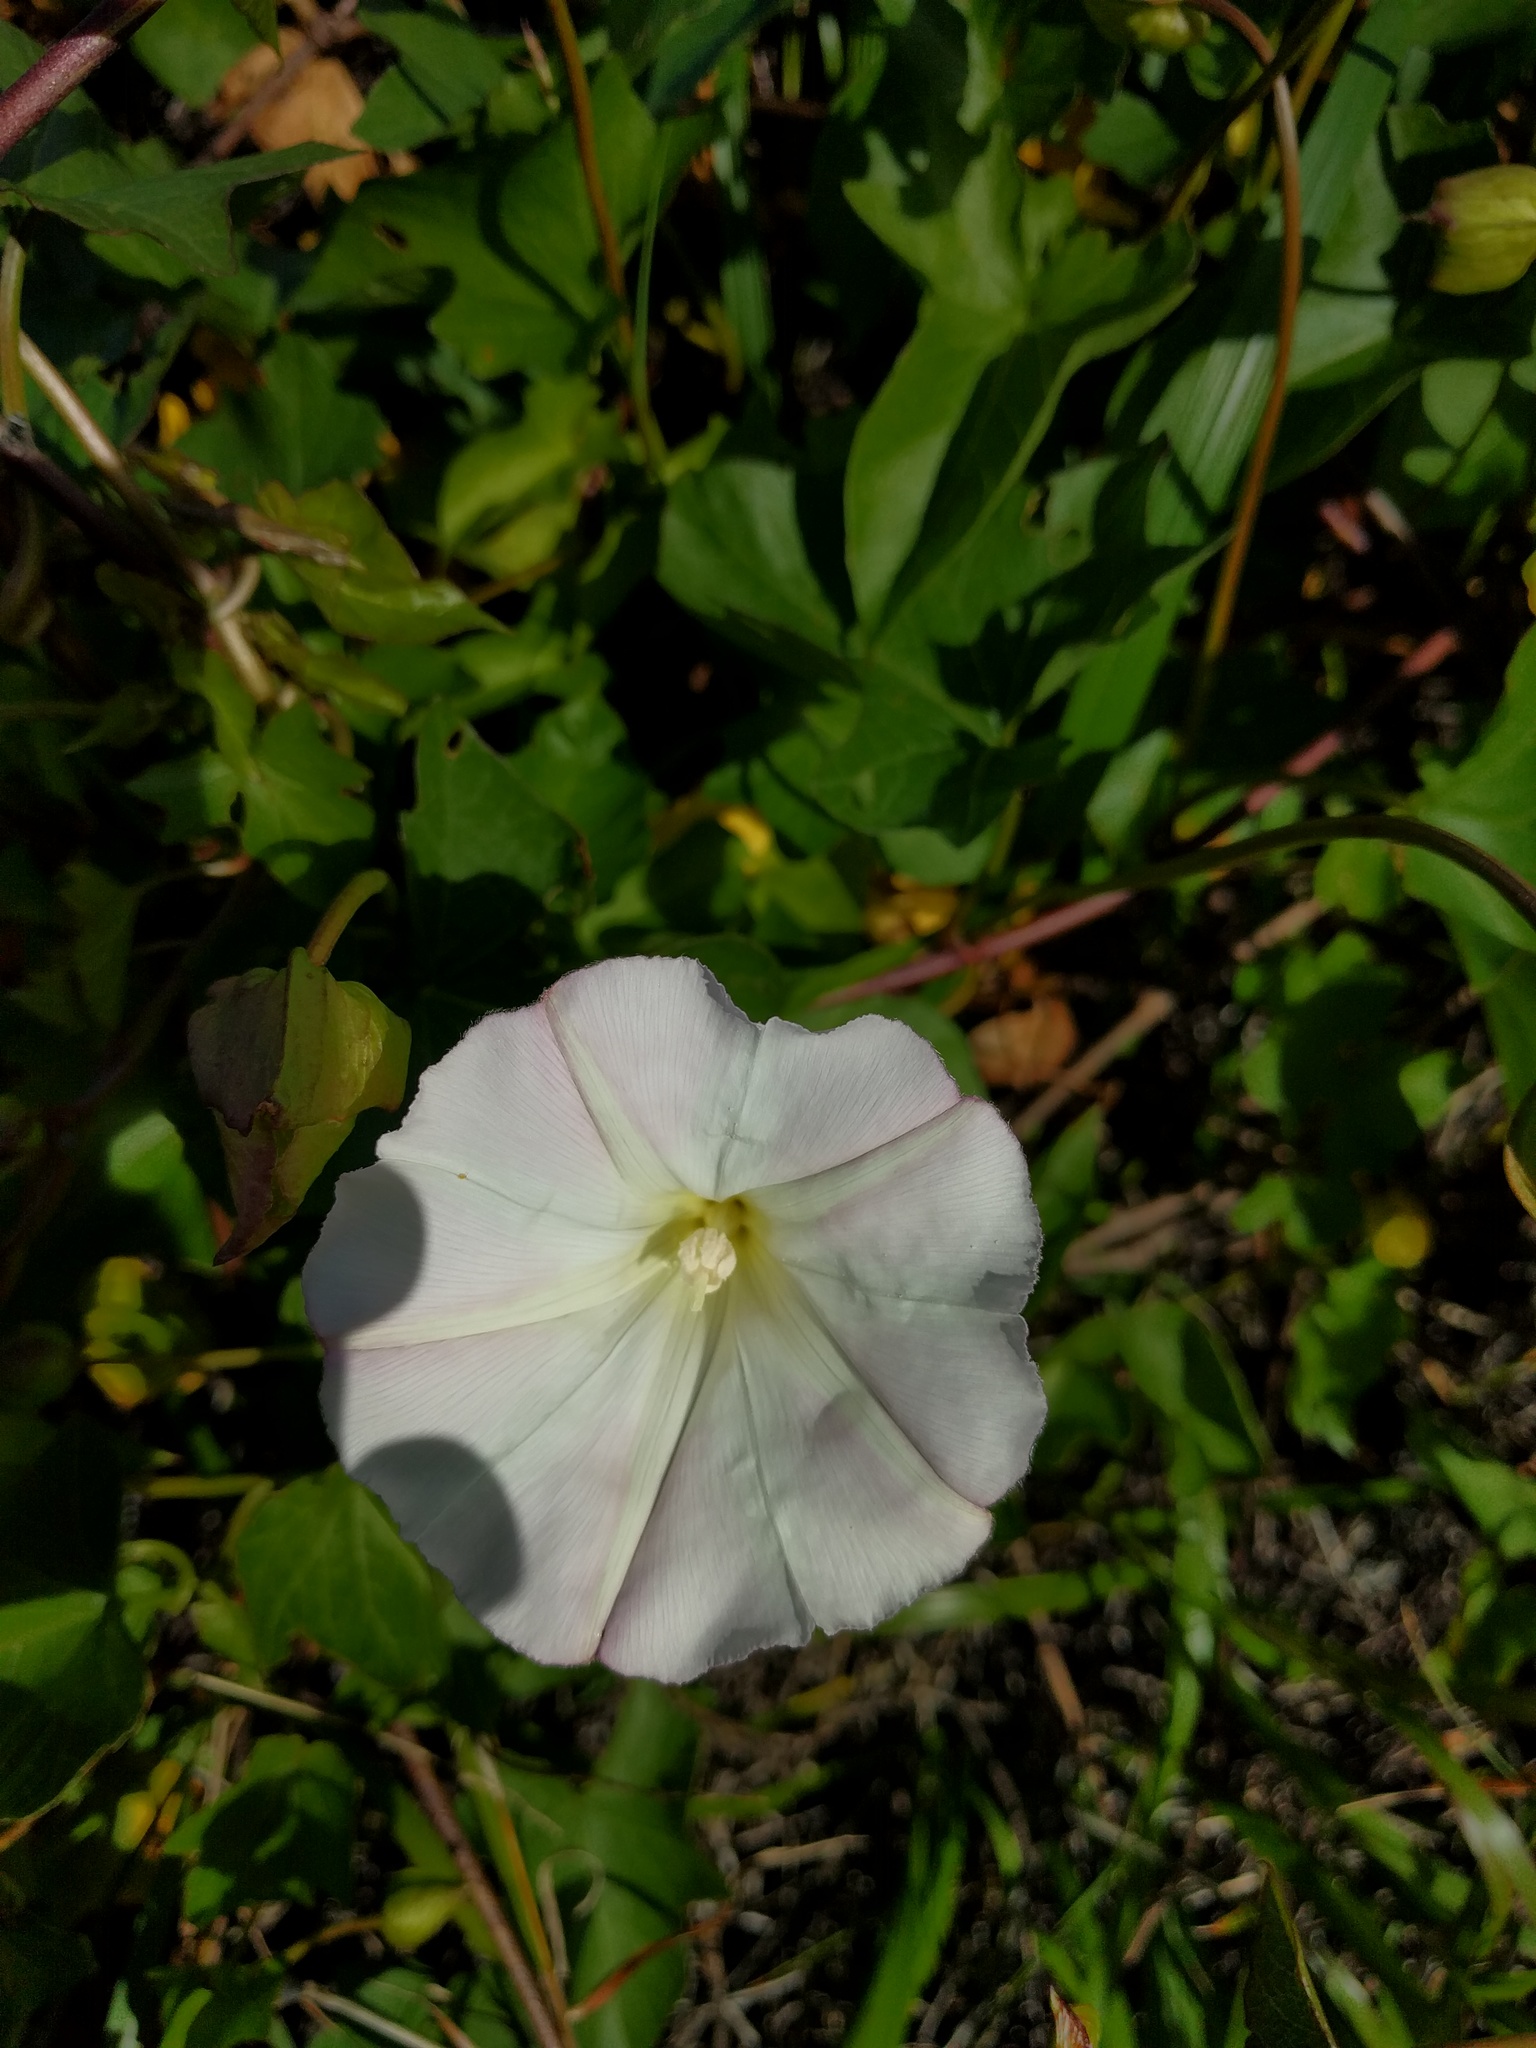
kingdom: Plantae
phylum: Tracheophyta
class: Magnoliopsida
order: Solanales
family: Convolvulaceae
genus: Calystegia
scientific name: Calystegia macrostegia
